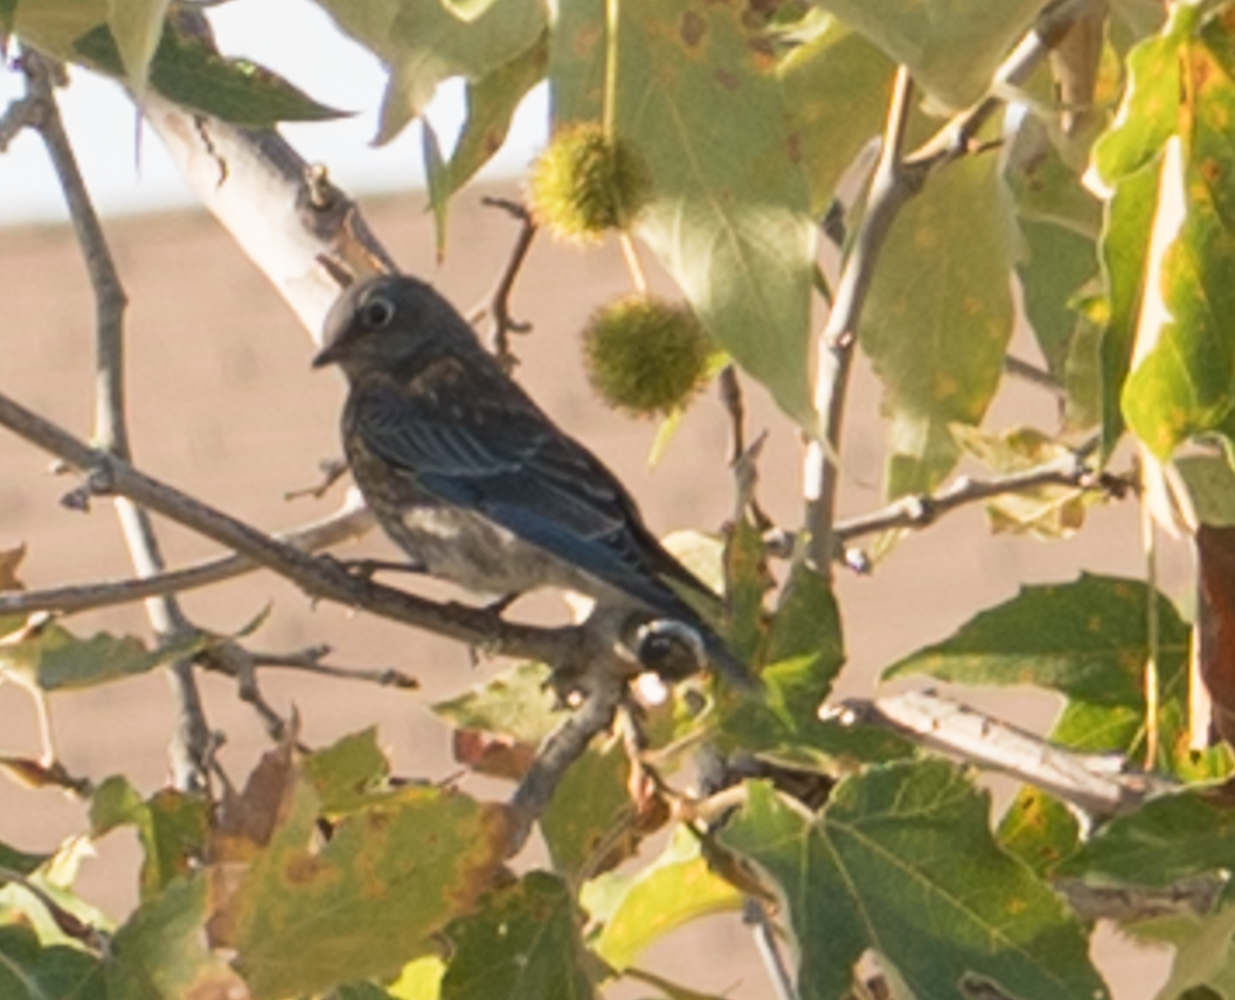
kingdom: Animalia
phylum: Chordata
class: Aves
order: Passeriformes
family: Turdidae
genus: Sialia
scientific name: Sialia mexicana
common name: Western bluebird
